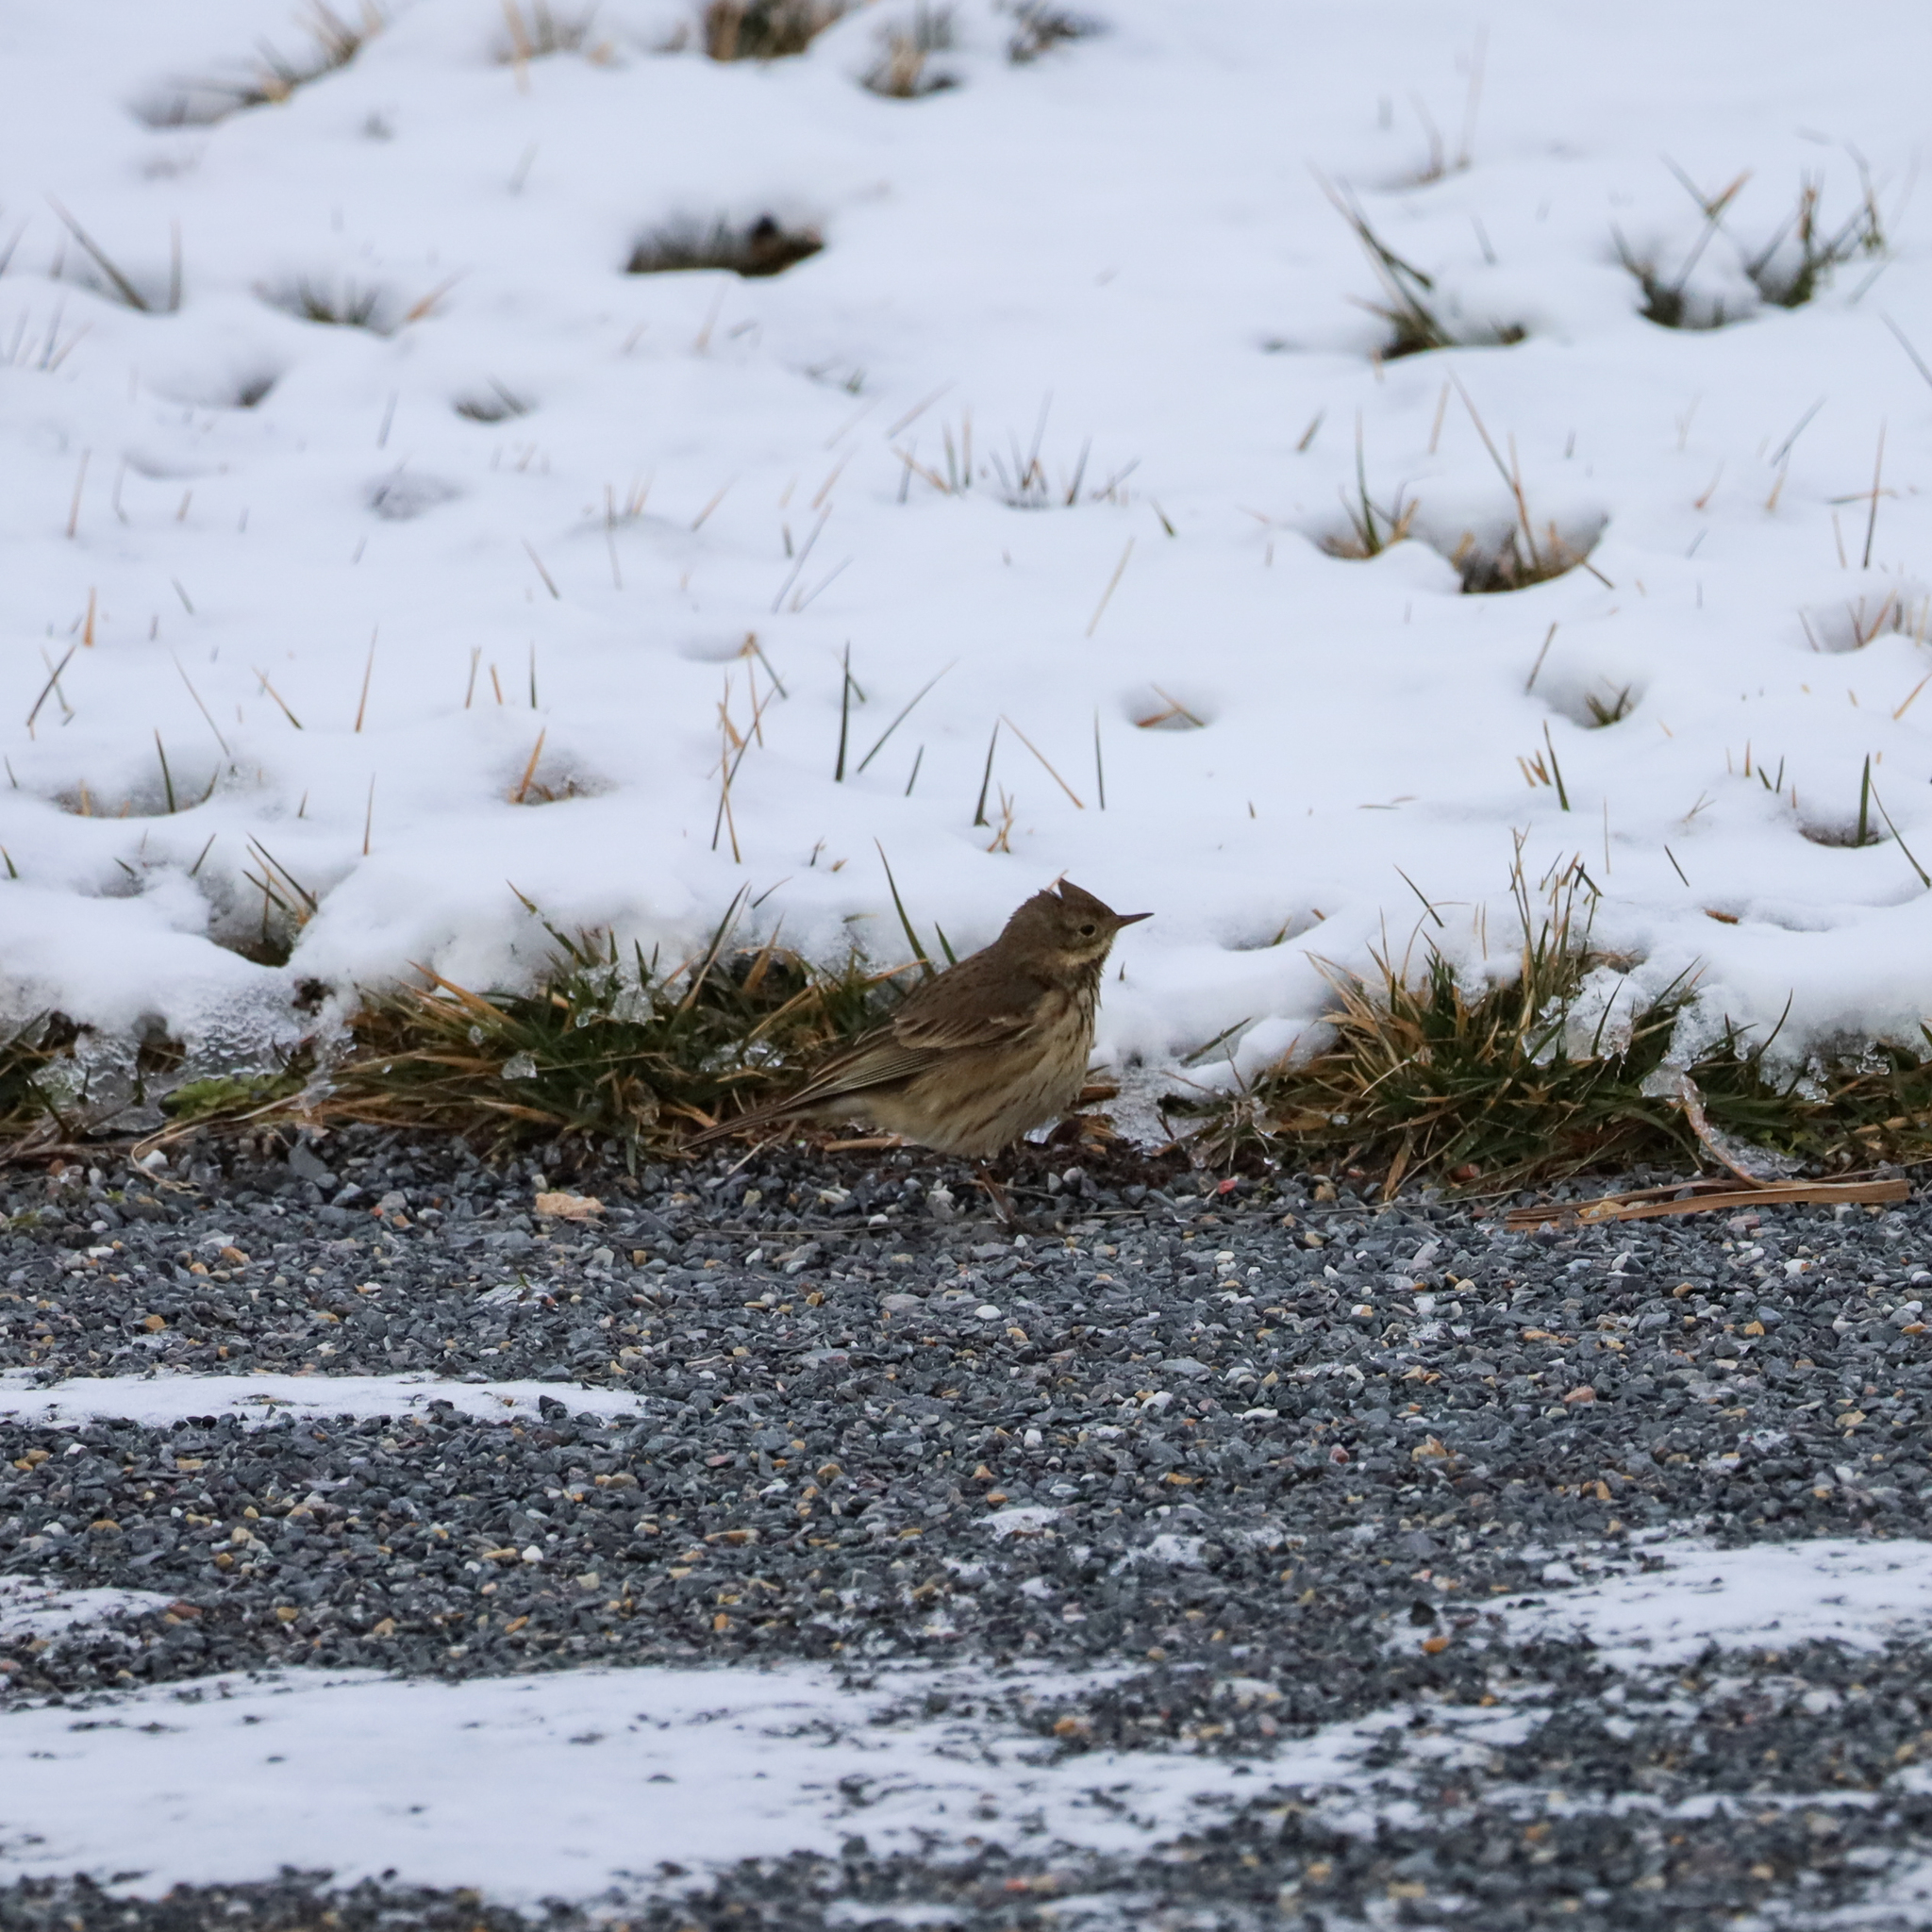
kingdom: Animalia
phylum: Chordata
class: Aves
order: Passeriformes
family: Motacillidae
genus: Anthus
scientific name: Anthus rubescens
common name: Buff-bellied pipit
